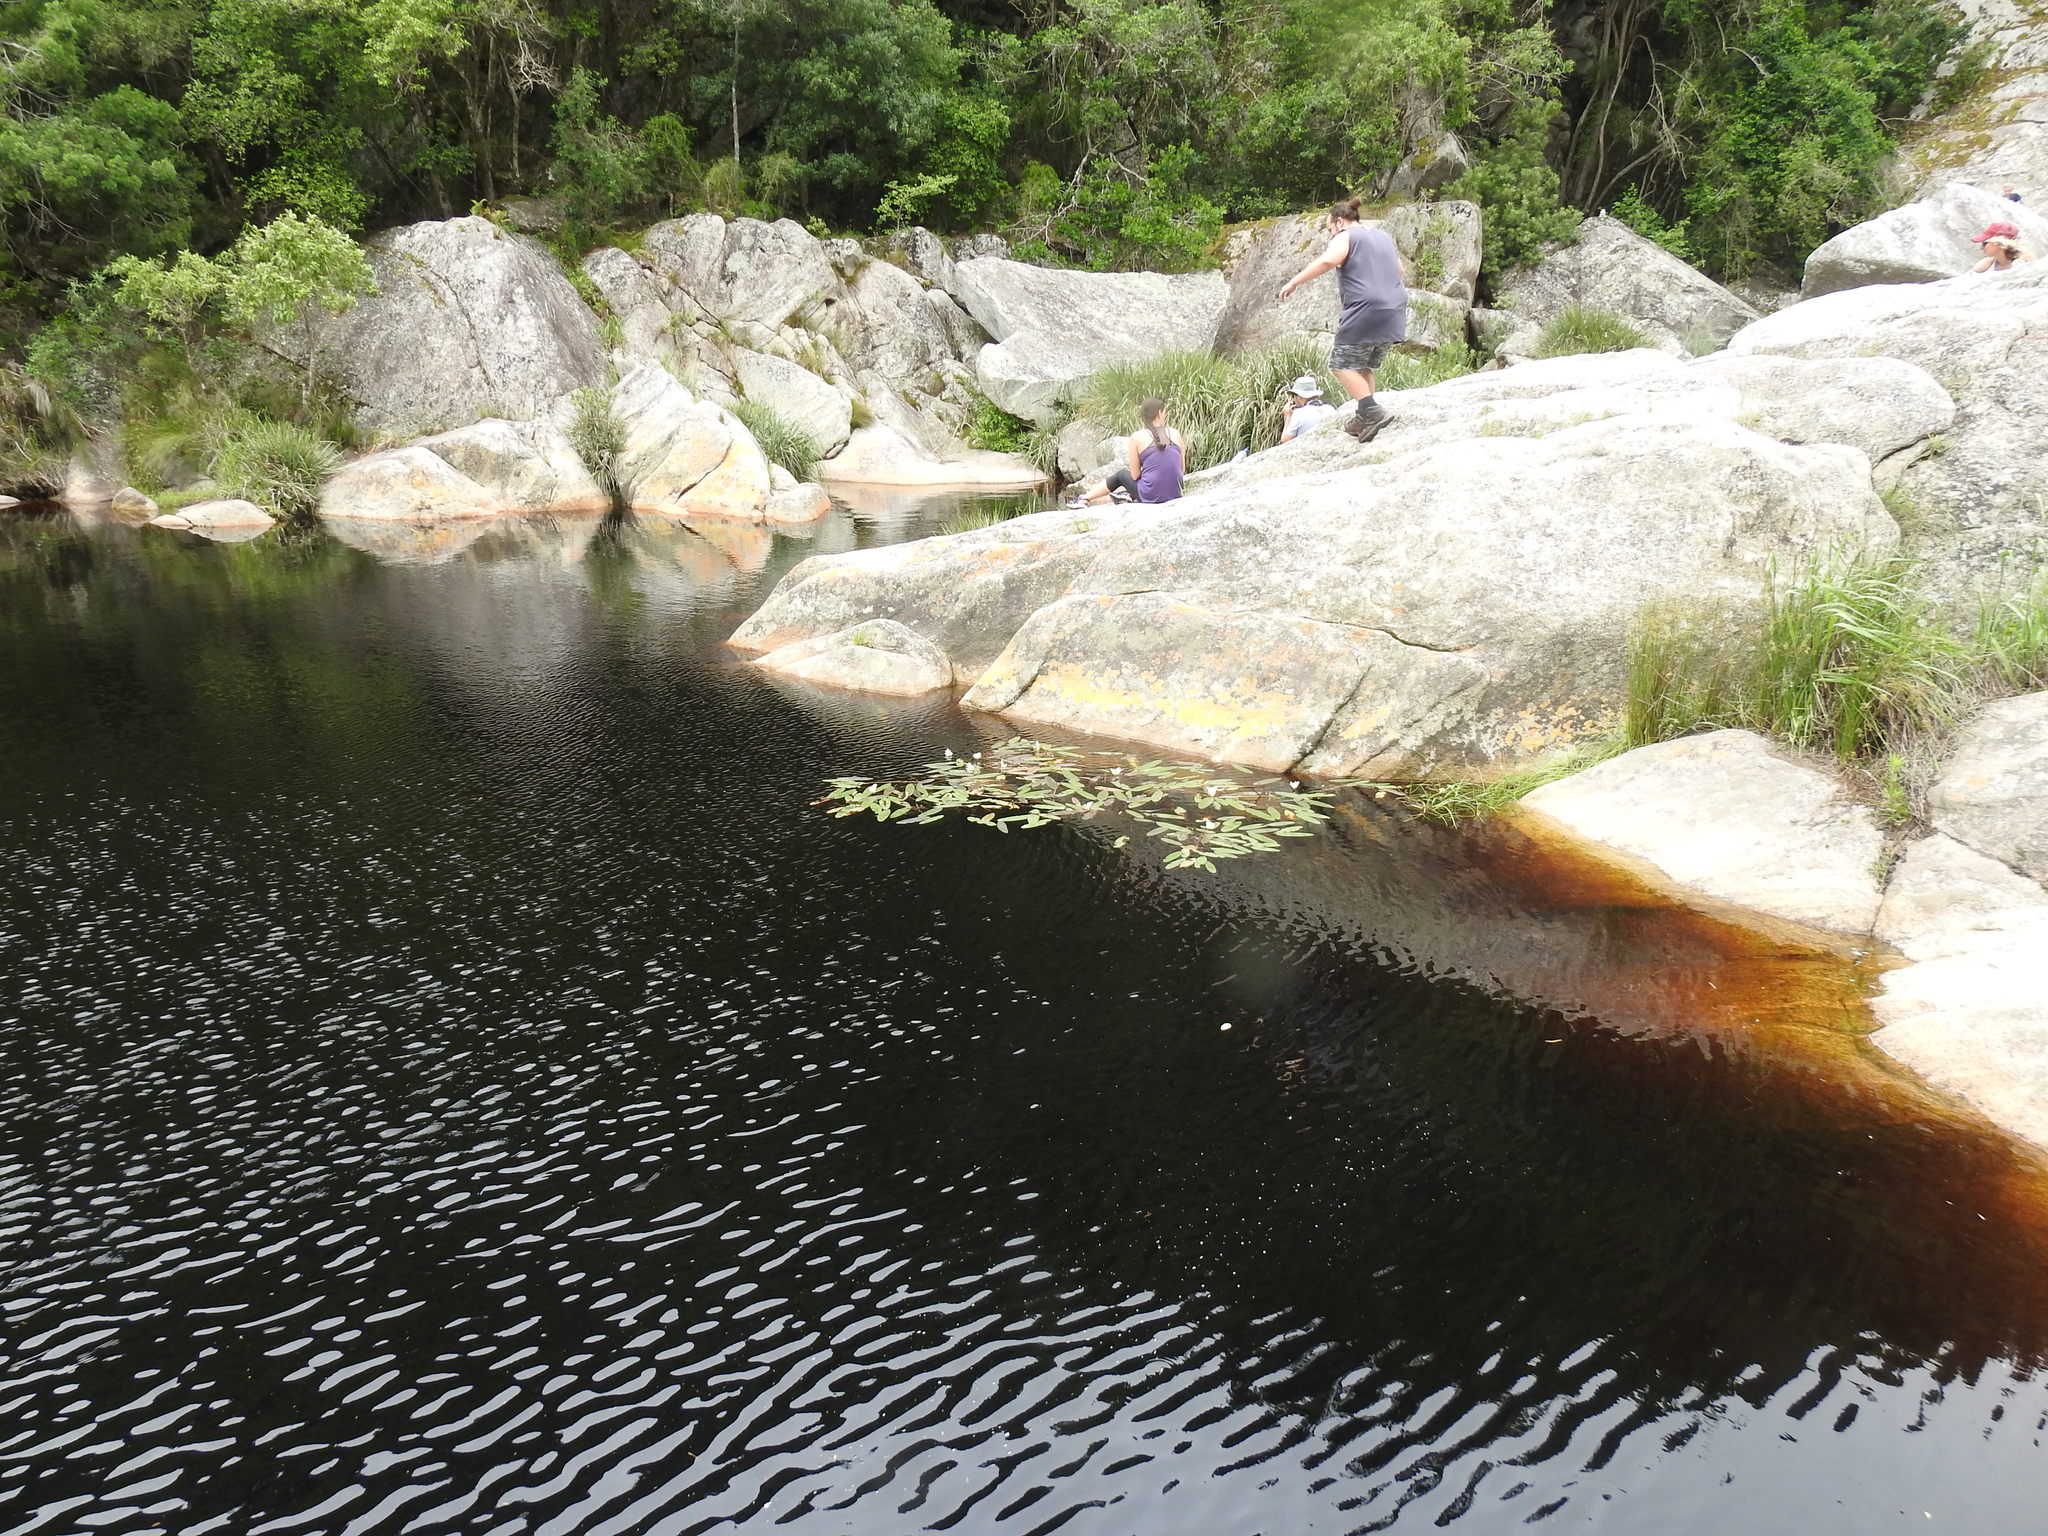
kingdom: Plantae
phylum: Tracheophyta
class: Liliopsida
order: Alismatales
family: Aponogetonaceae
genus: Aponogeton
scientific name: Aponogeton distachyos
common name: Cape-pondweed
